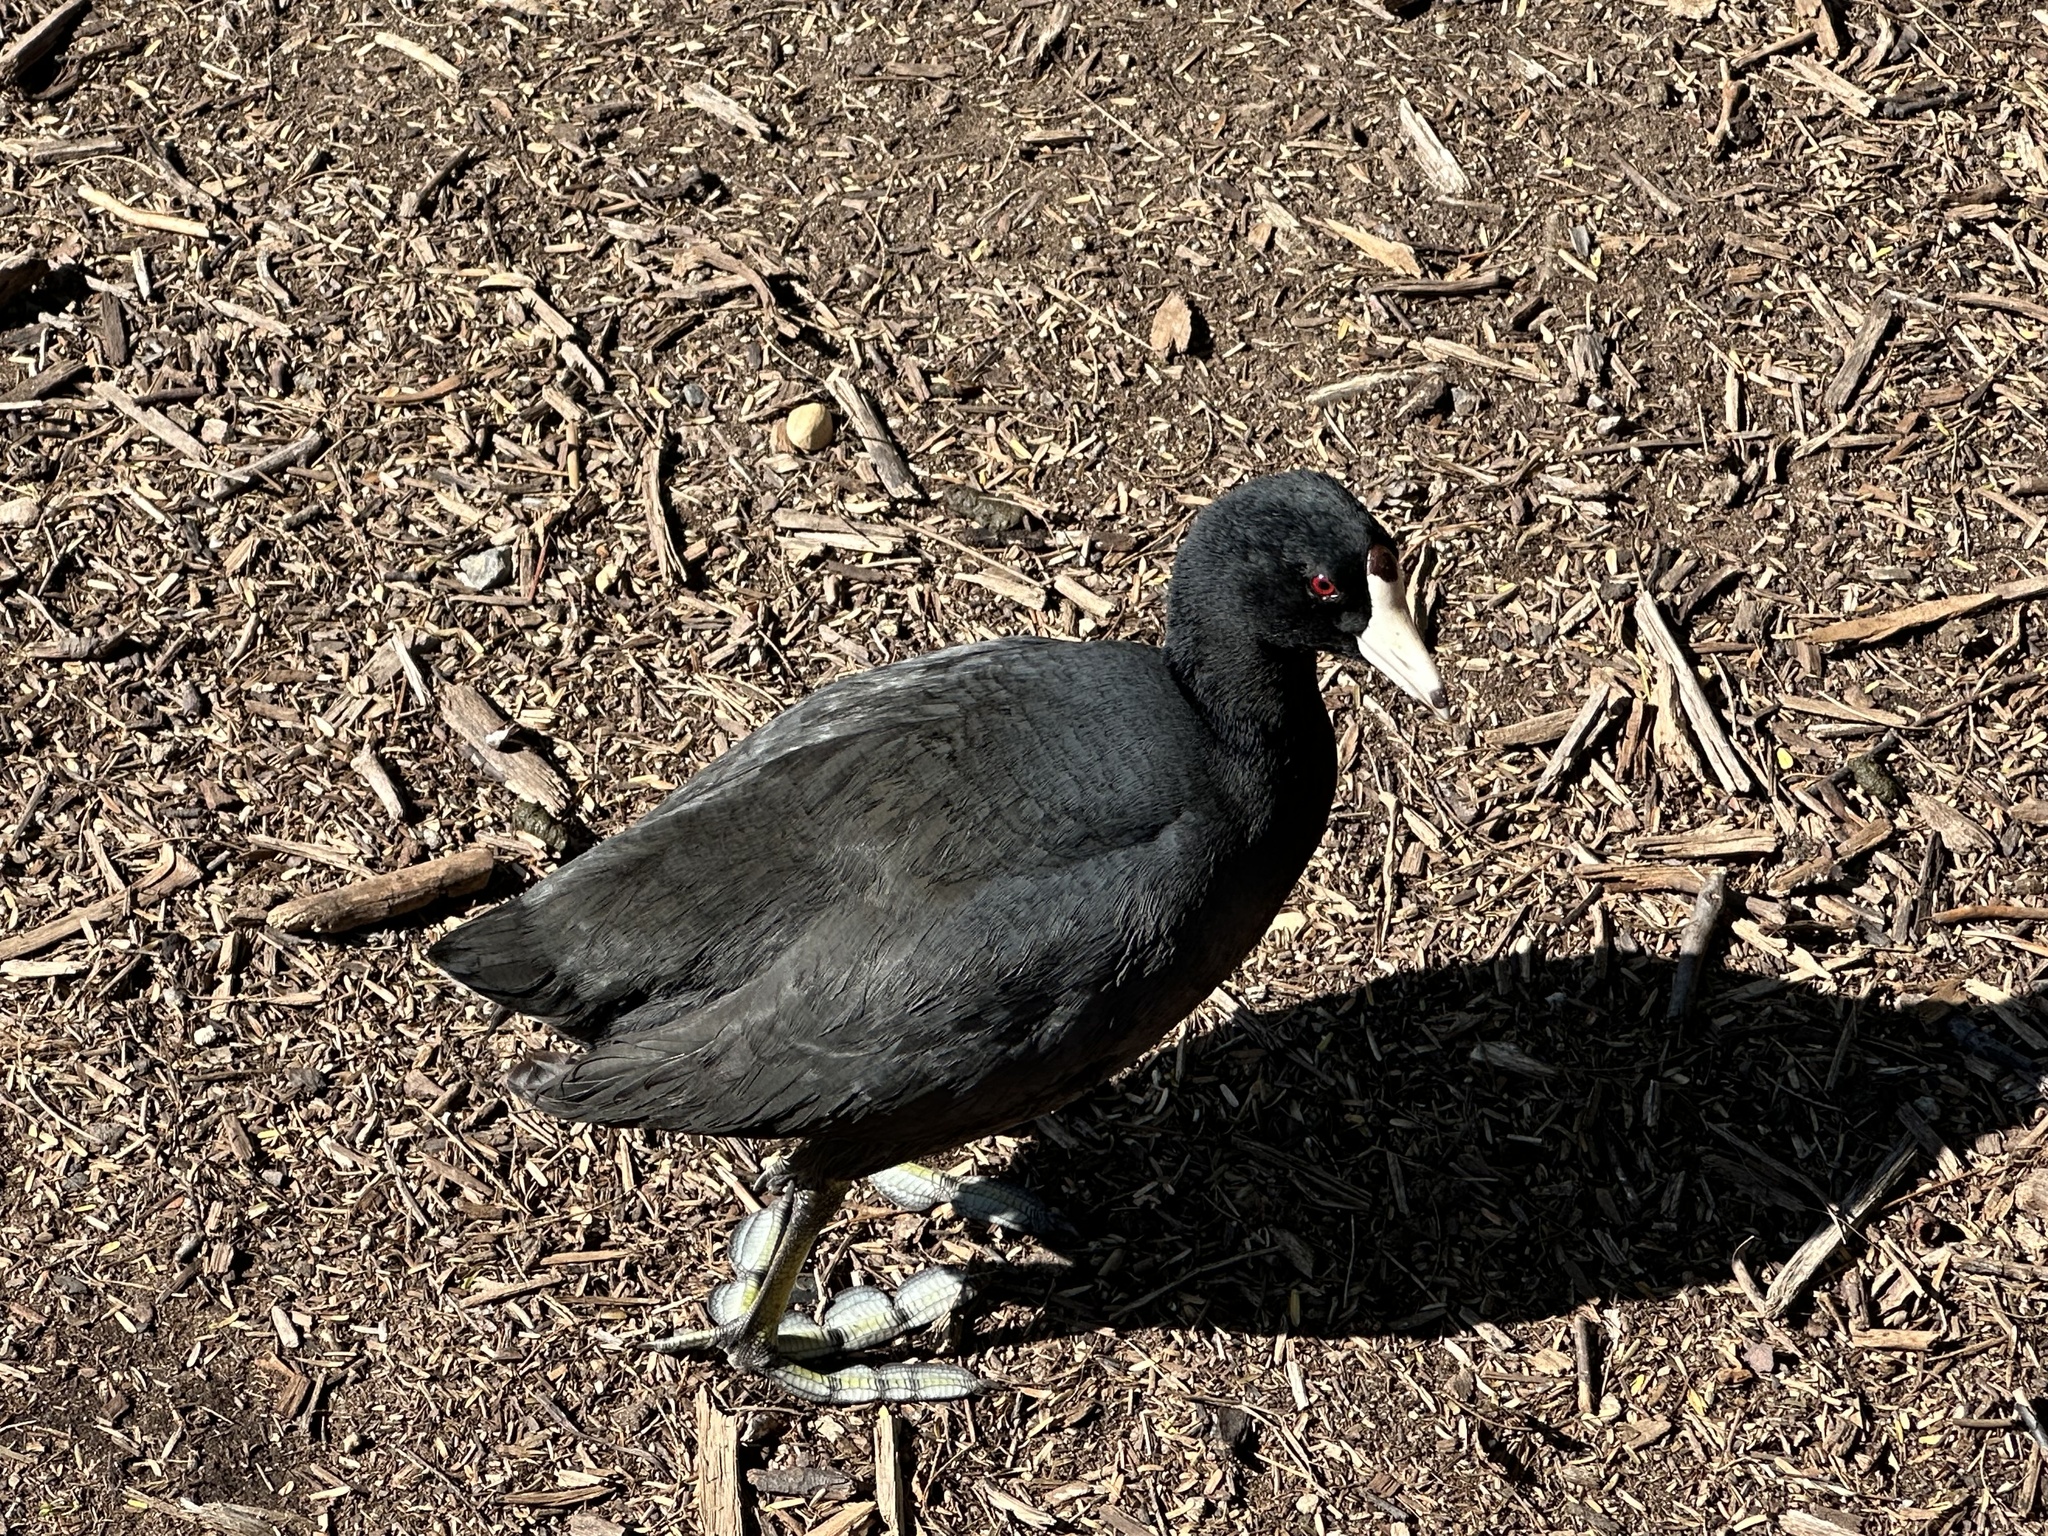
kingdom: Animalia
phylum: Chordata
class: Aves
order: Gruiformes
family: Rallidae
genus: Fulica
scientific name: Fulica americana
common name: American coot
